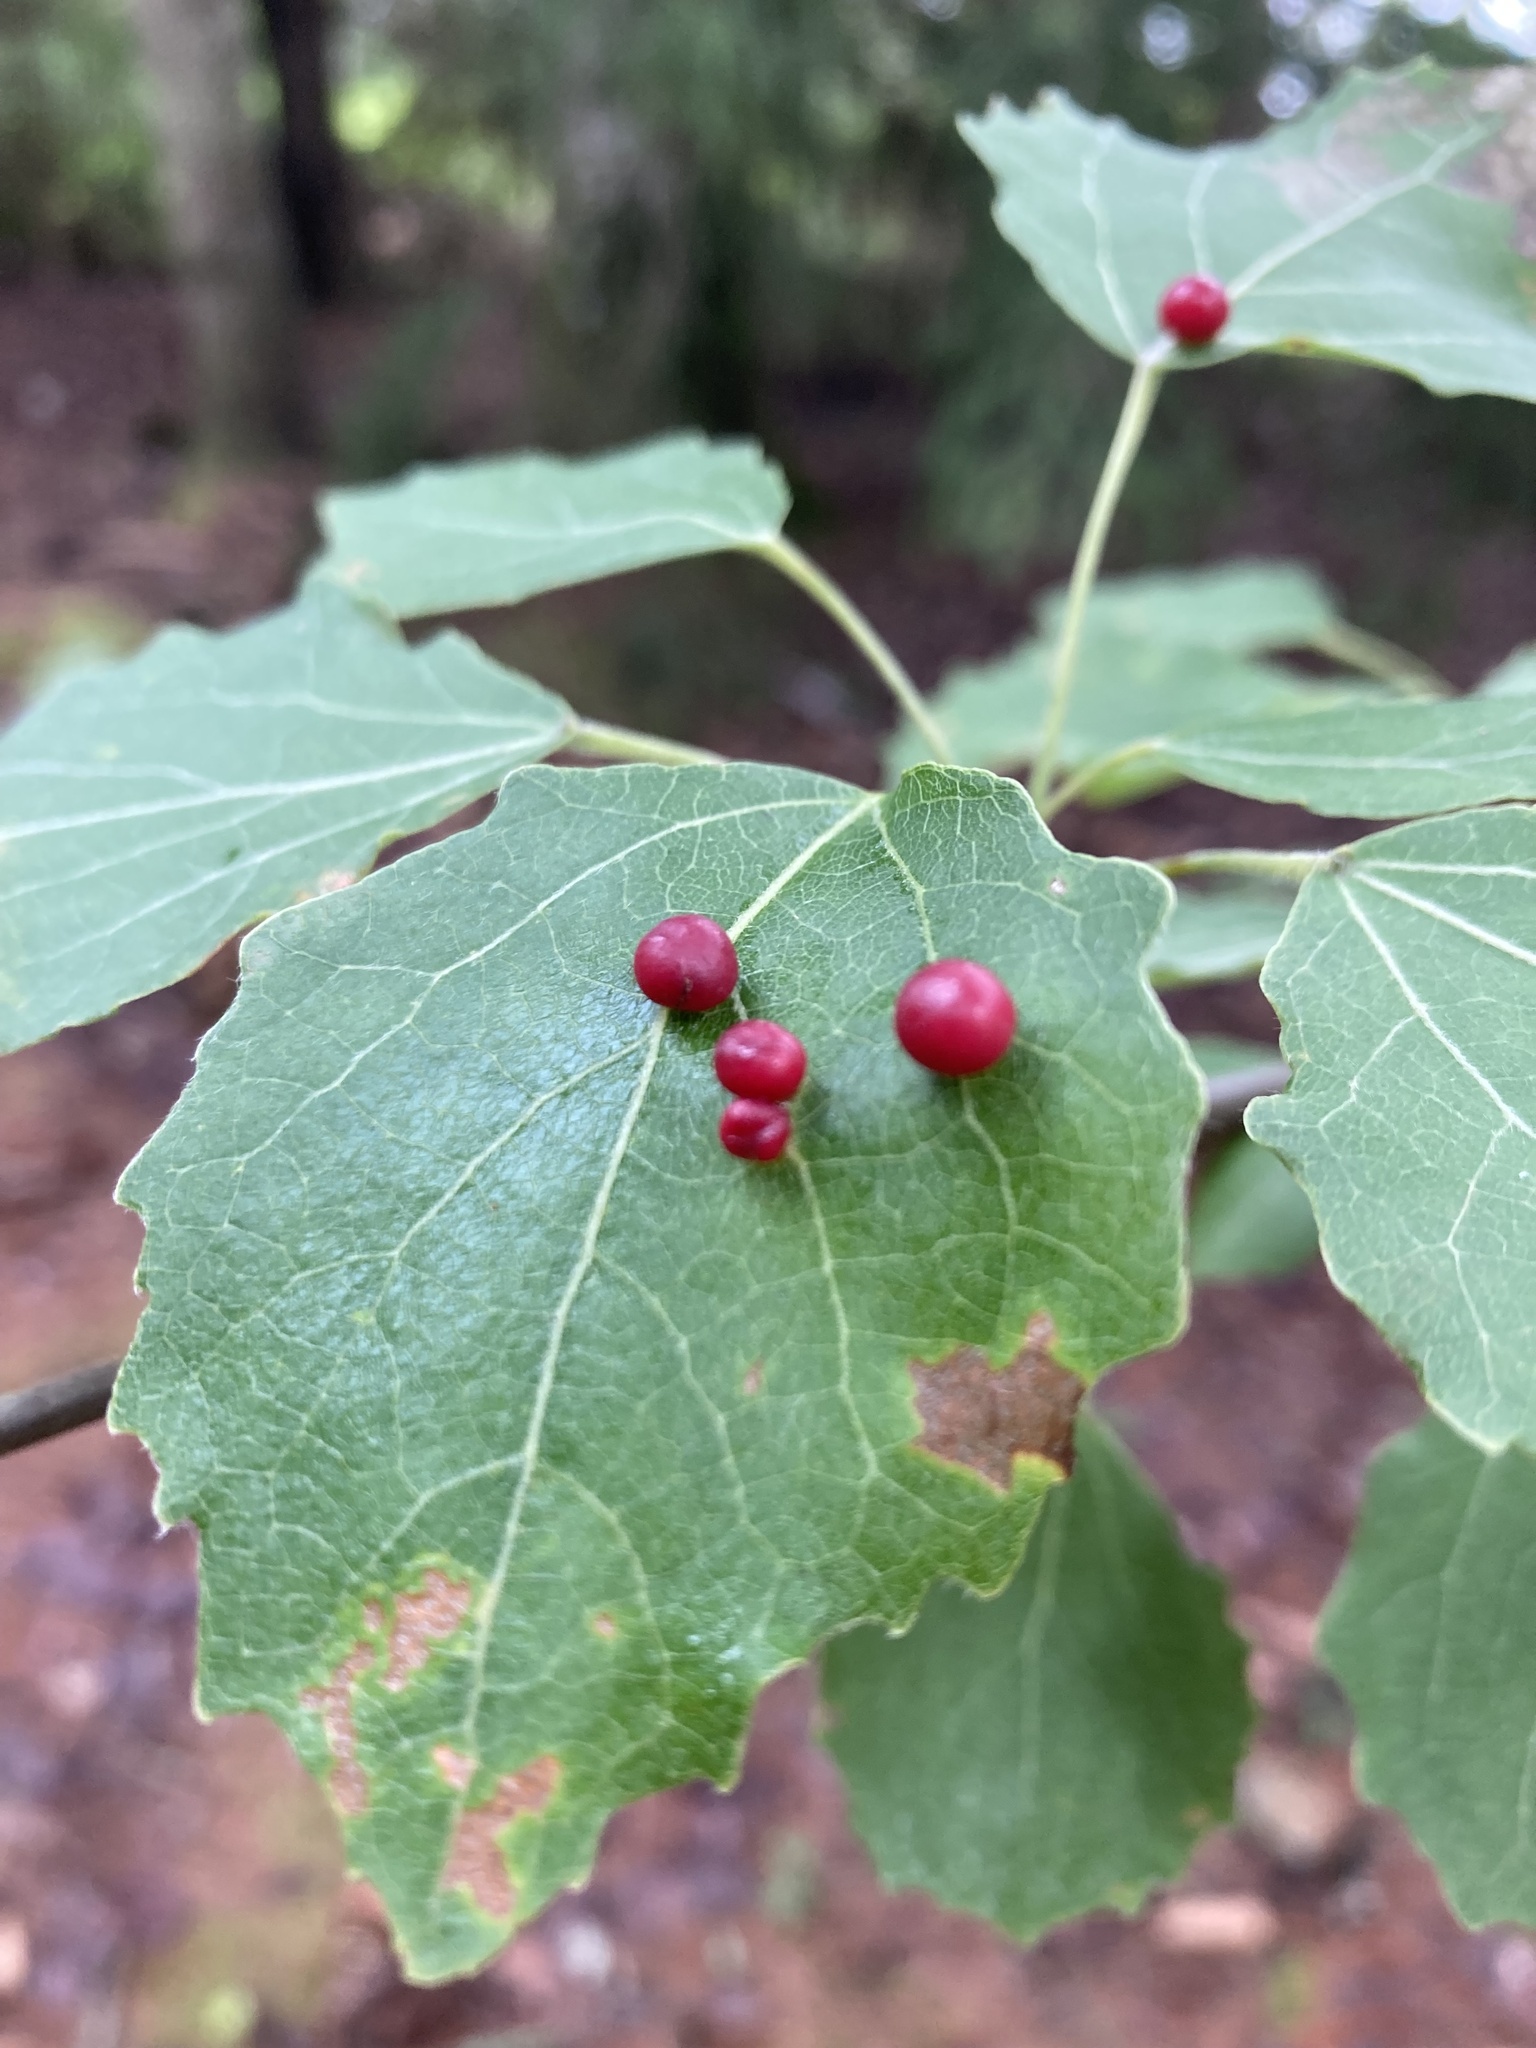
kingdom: Animalia
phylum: Arthropoda
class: Insecta
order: Diptera
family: Cecidomyiidae
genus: Harmandiola
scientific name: Harmandiola tremulae
